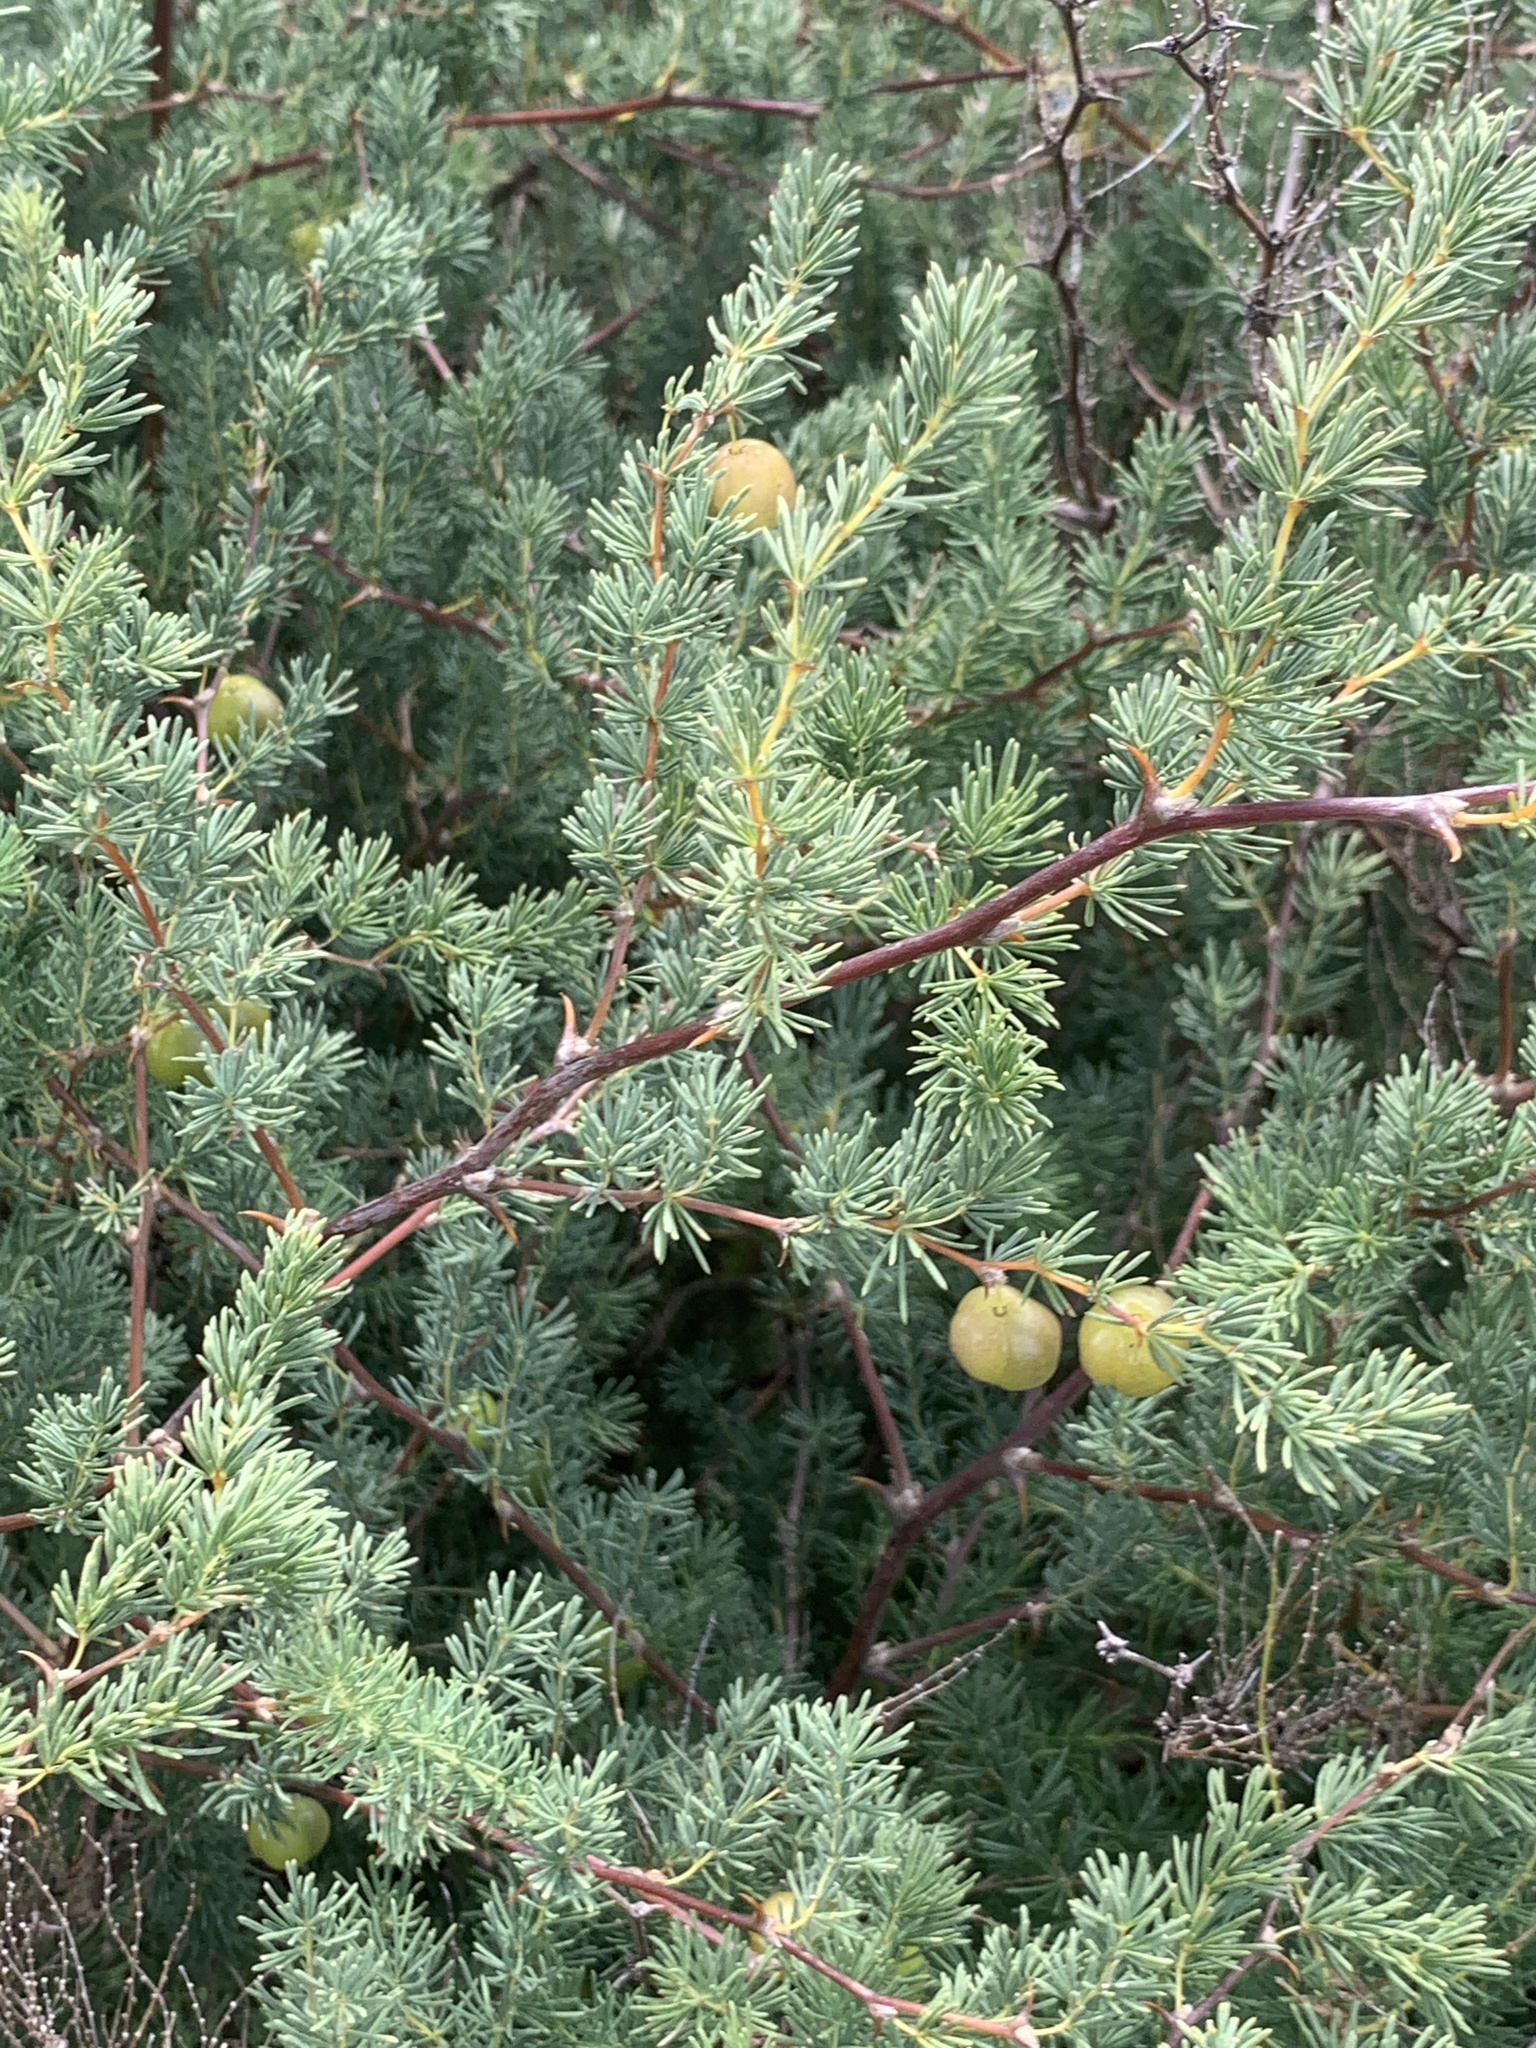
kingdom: Plantae
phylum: Tracheophyta
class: Liliopsida
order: Asparagales
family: Asparagaceae
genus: Asparagus
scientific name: Asparagus rubicundus
